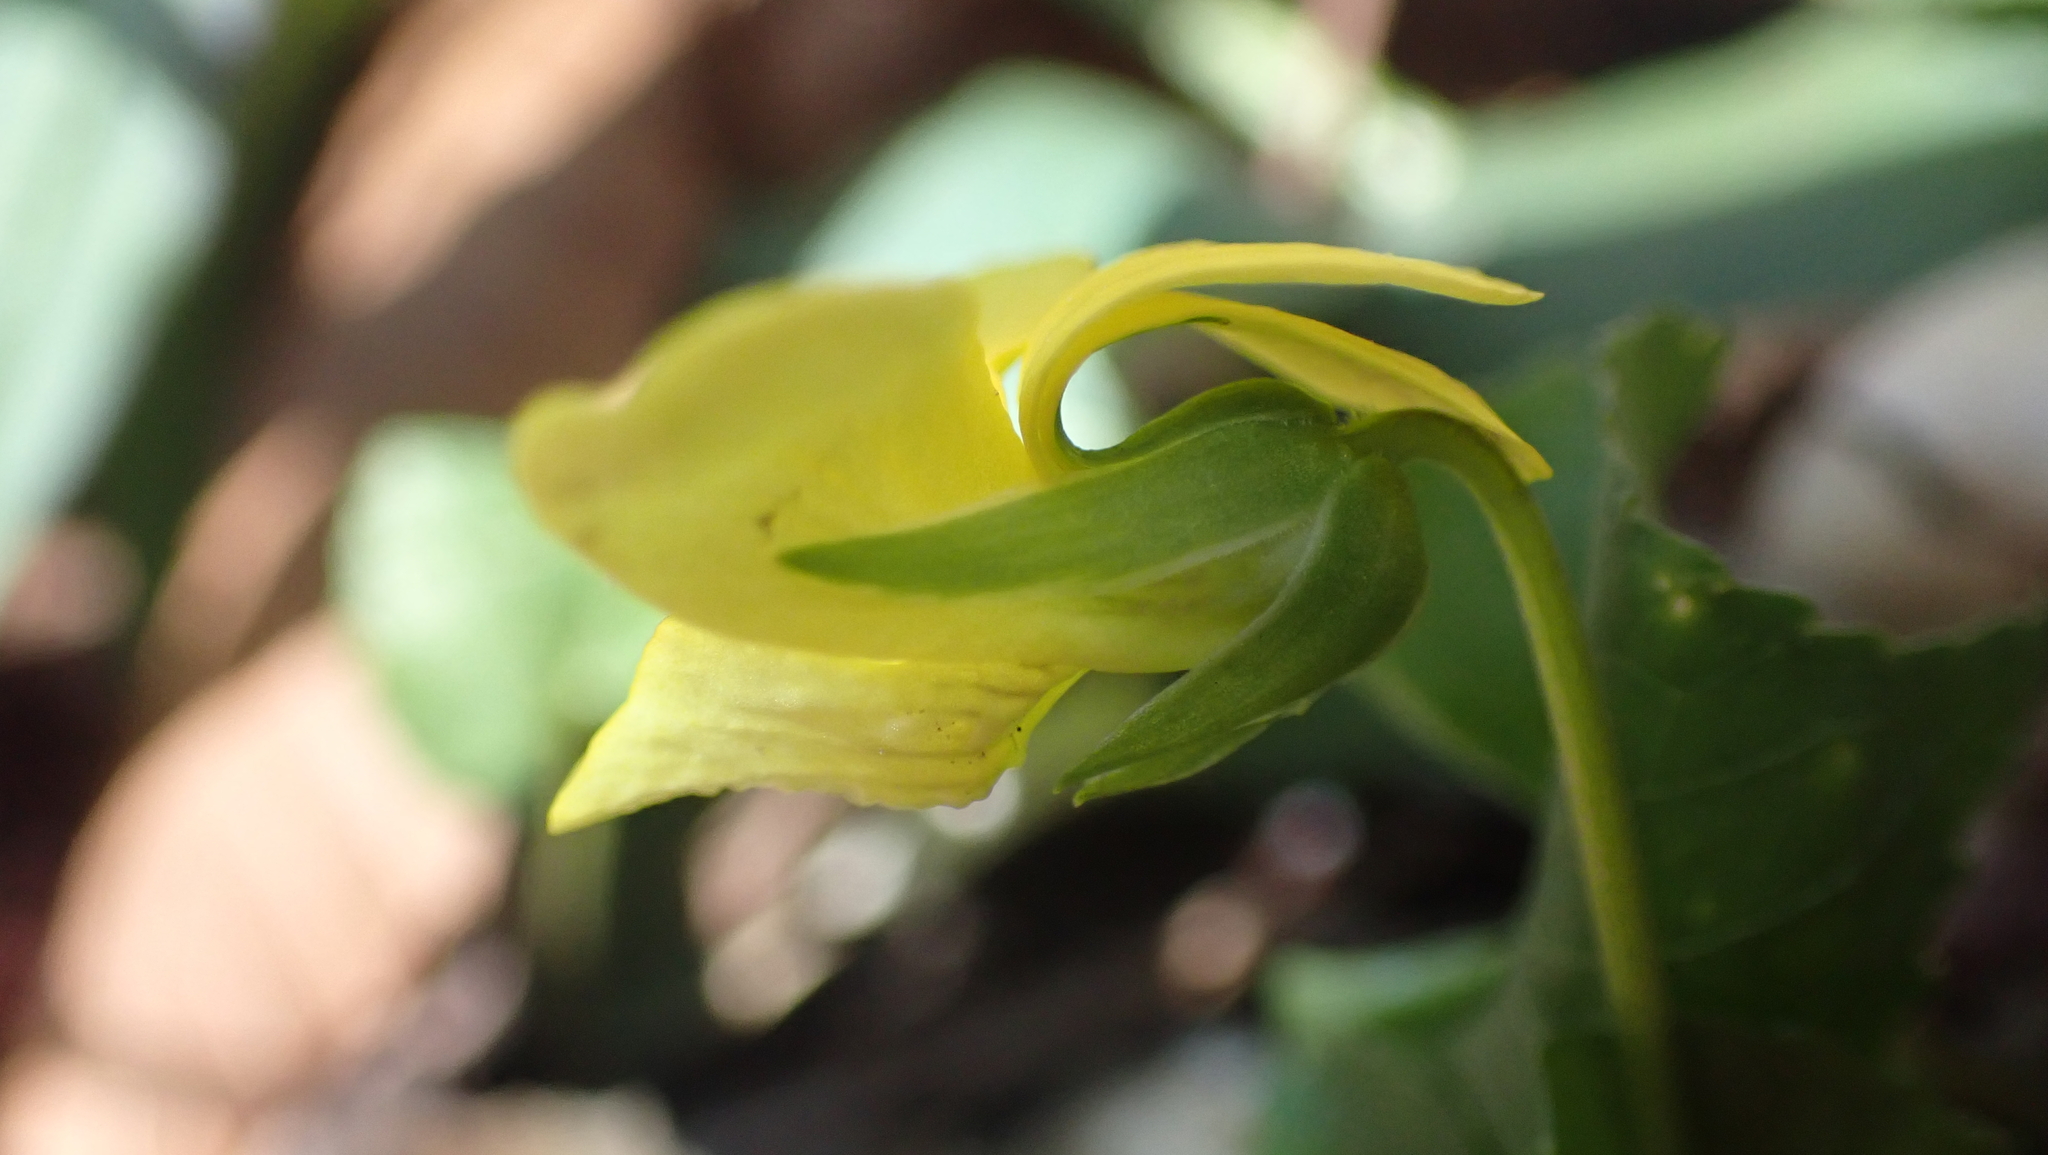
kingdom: Plantae
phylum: Tracheophyta
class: Magnoliopsida
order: Malpighiales
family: Violaceae
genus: Viola
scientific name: Viola eriocarpa
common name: Smooth yellow violet
